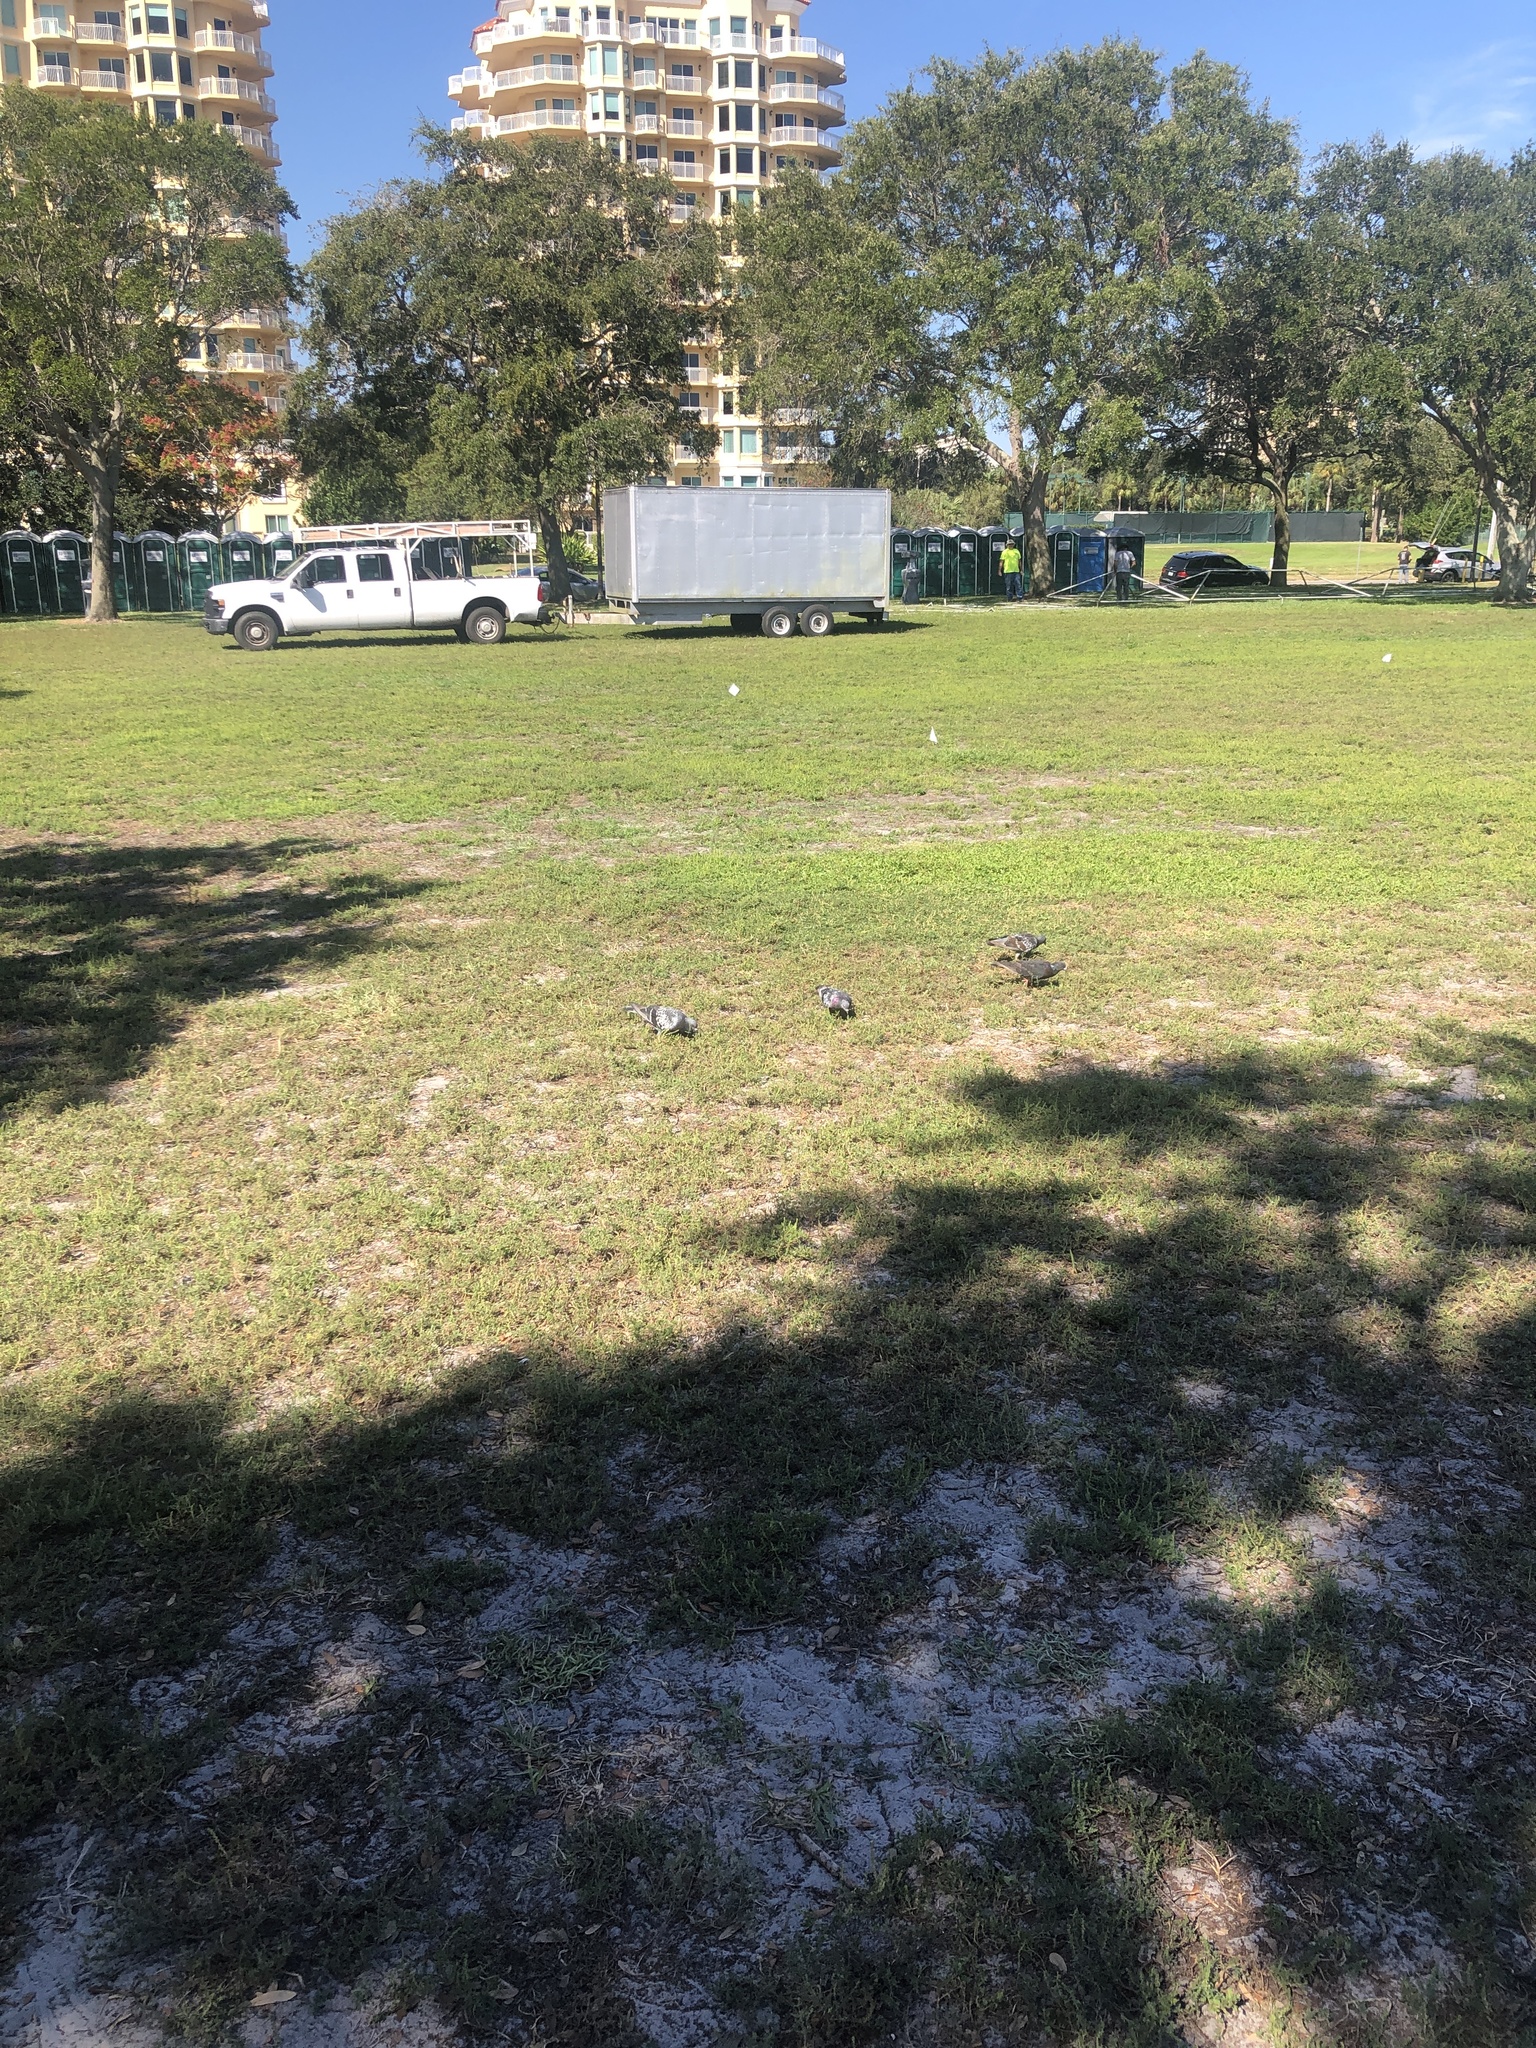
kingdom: Animalia
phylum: Chordata
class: Aves
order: Columbiformes
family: Columbidae
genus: Columba
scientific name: Columba livia
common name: Rock pigeon
